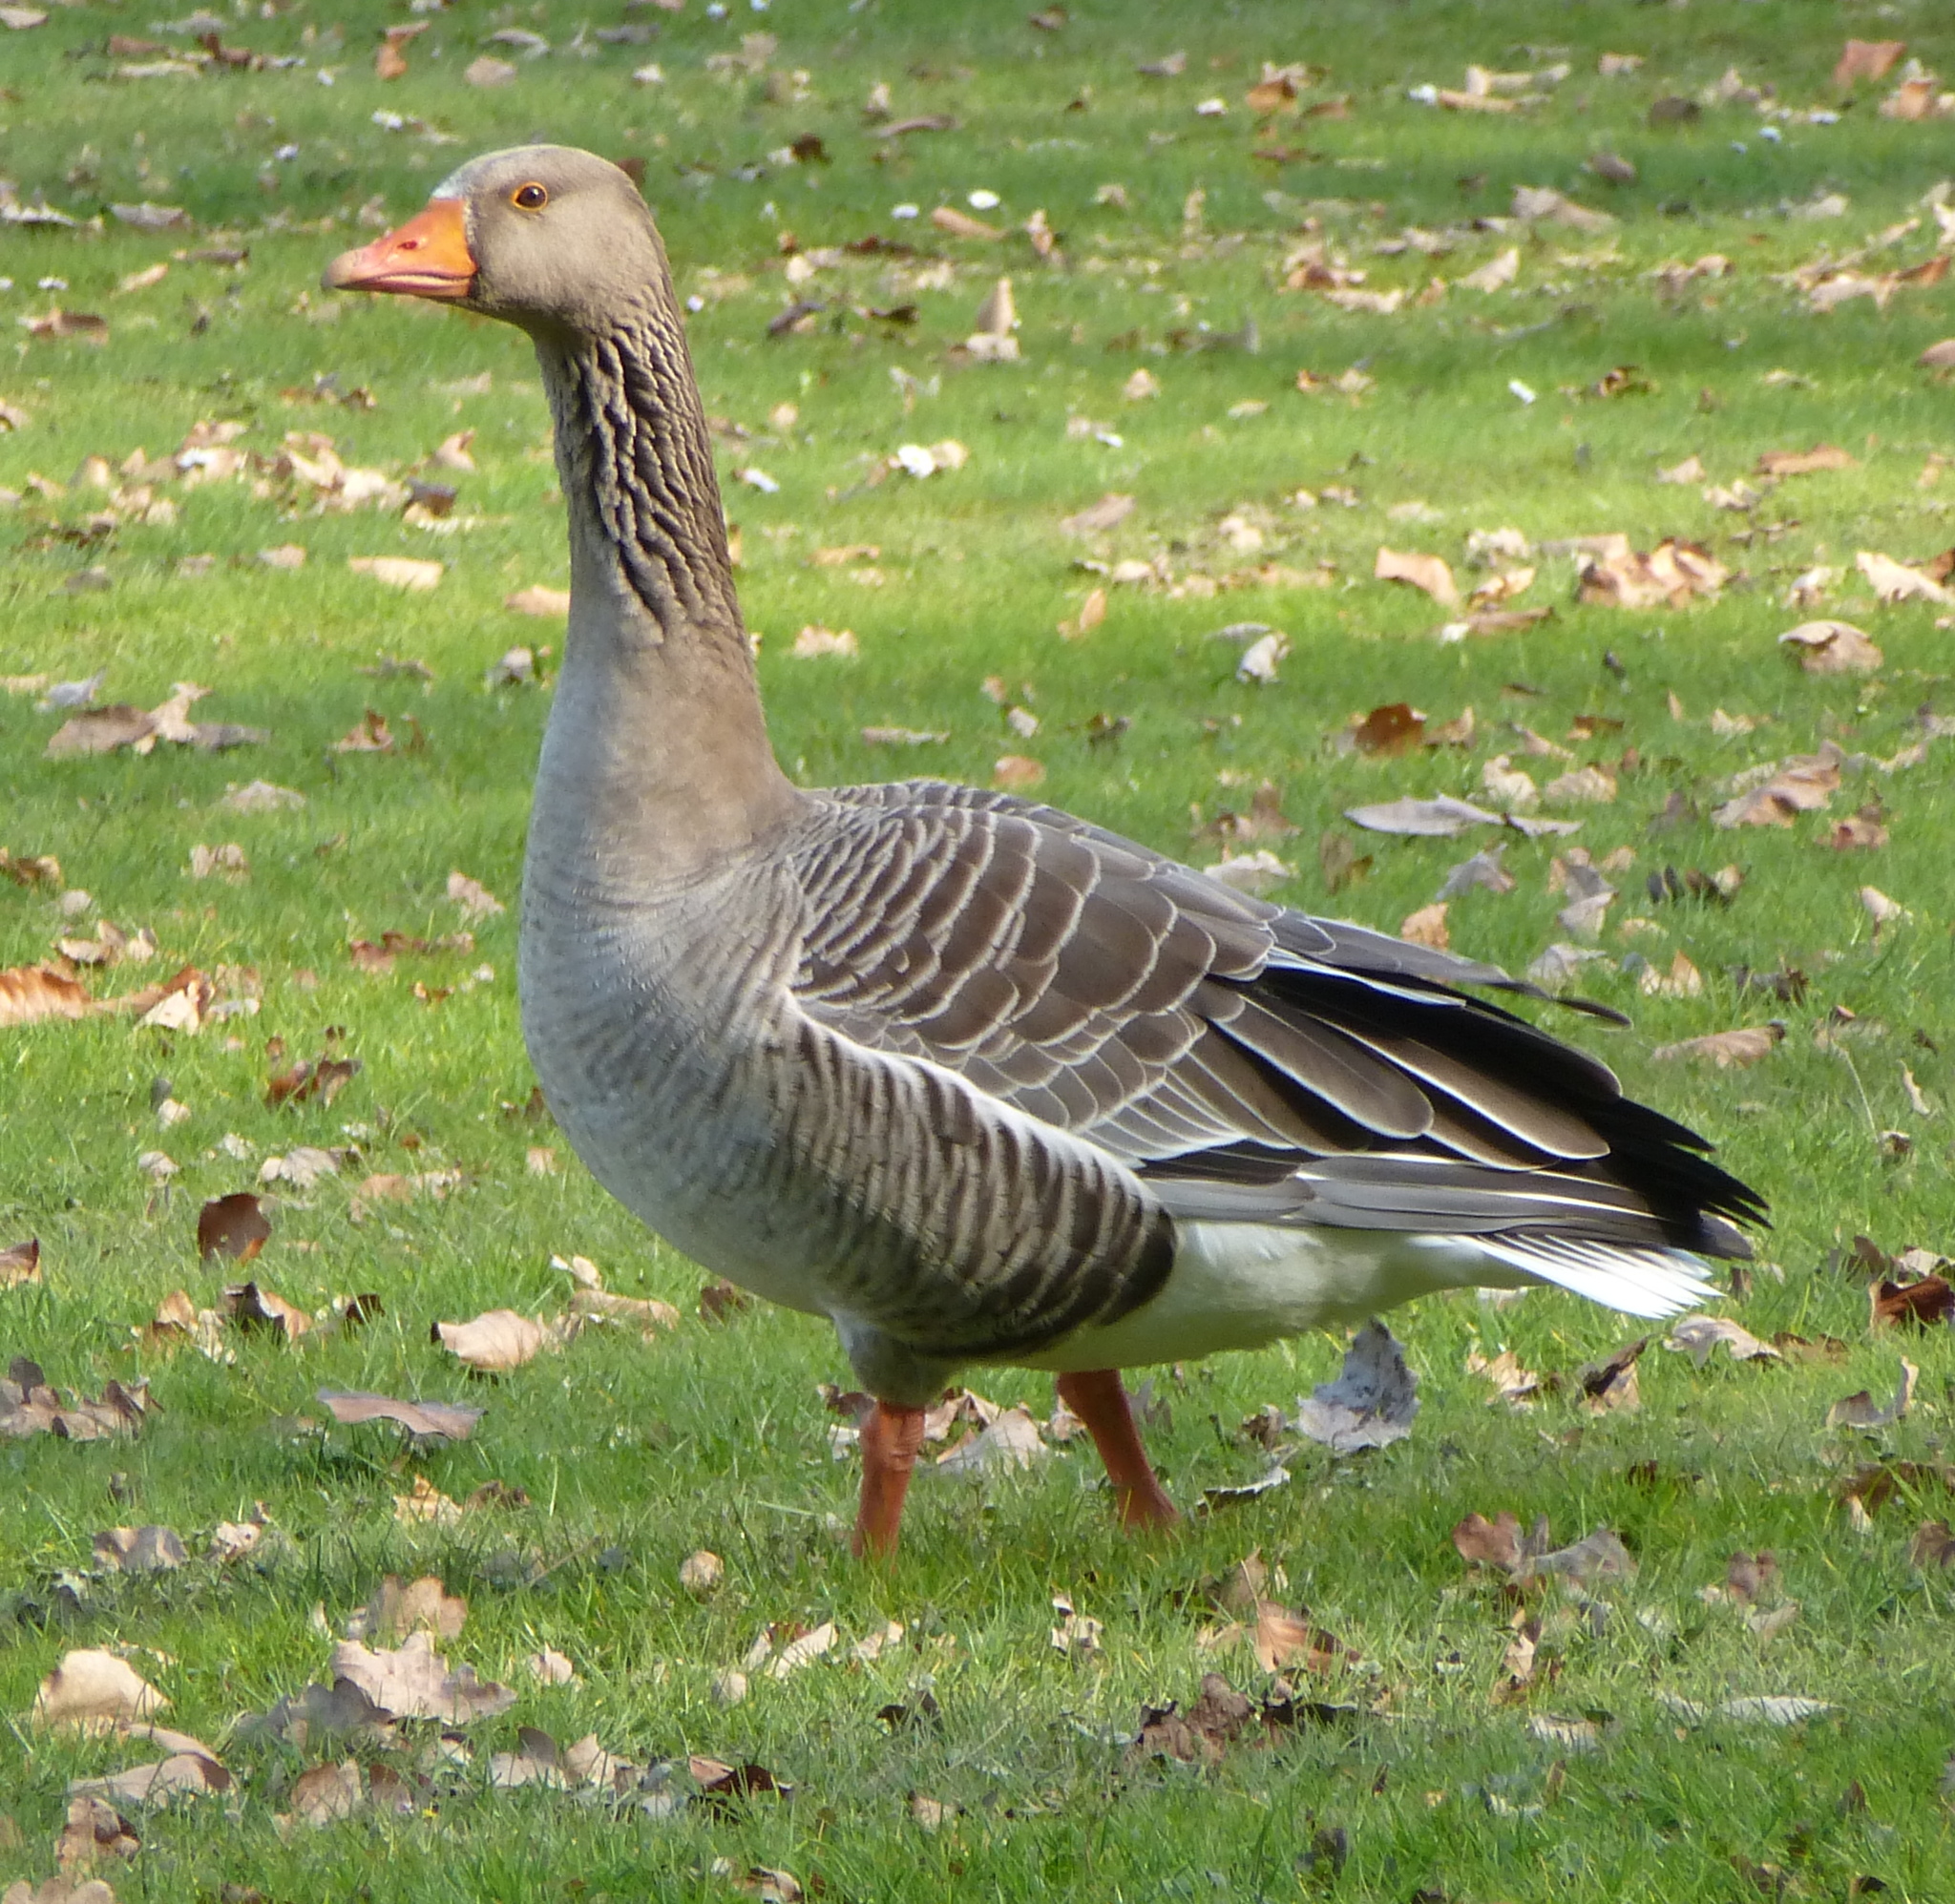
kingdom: Animalia
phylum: Chordata
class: Aves
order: Anseriformes
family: Anatidae
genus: Anser
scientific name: Anser anser
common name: Greylag goose
